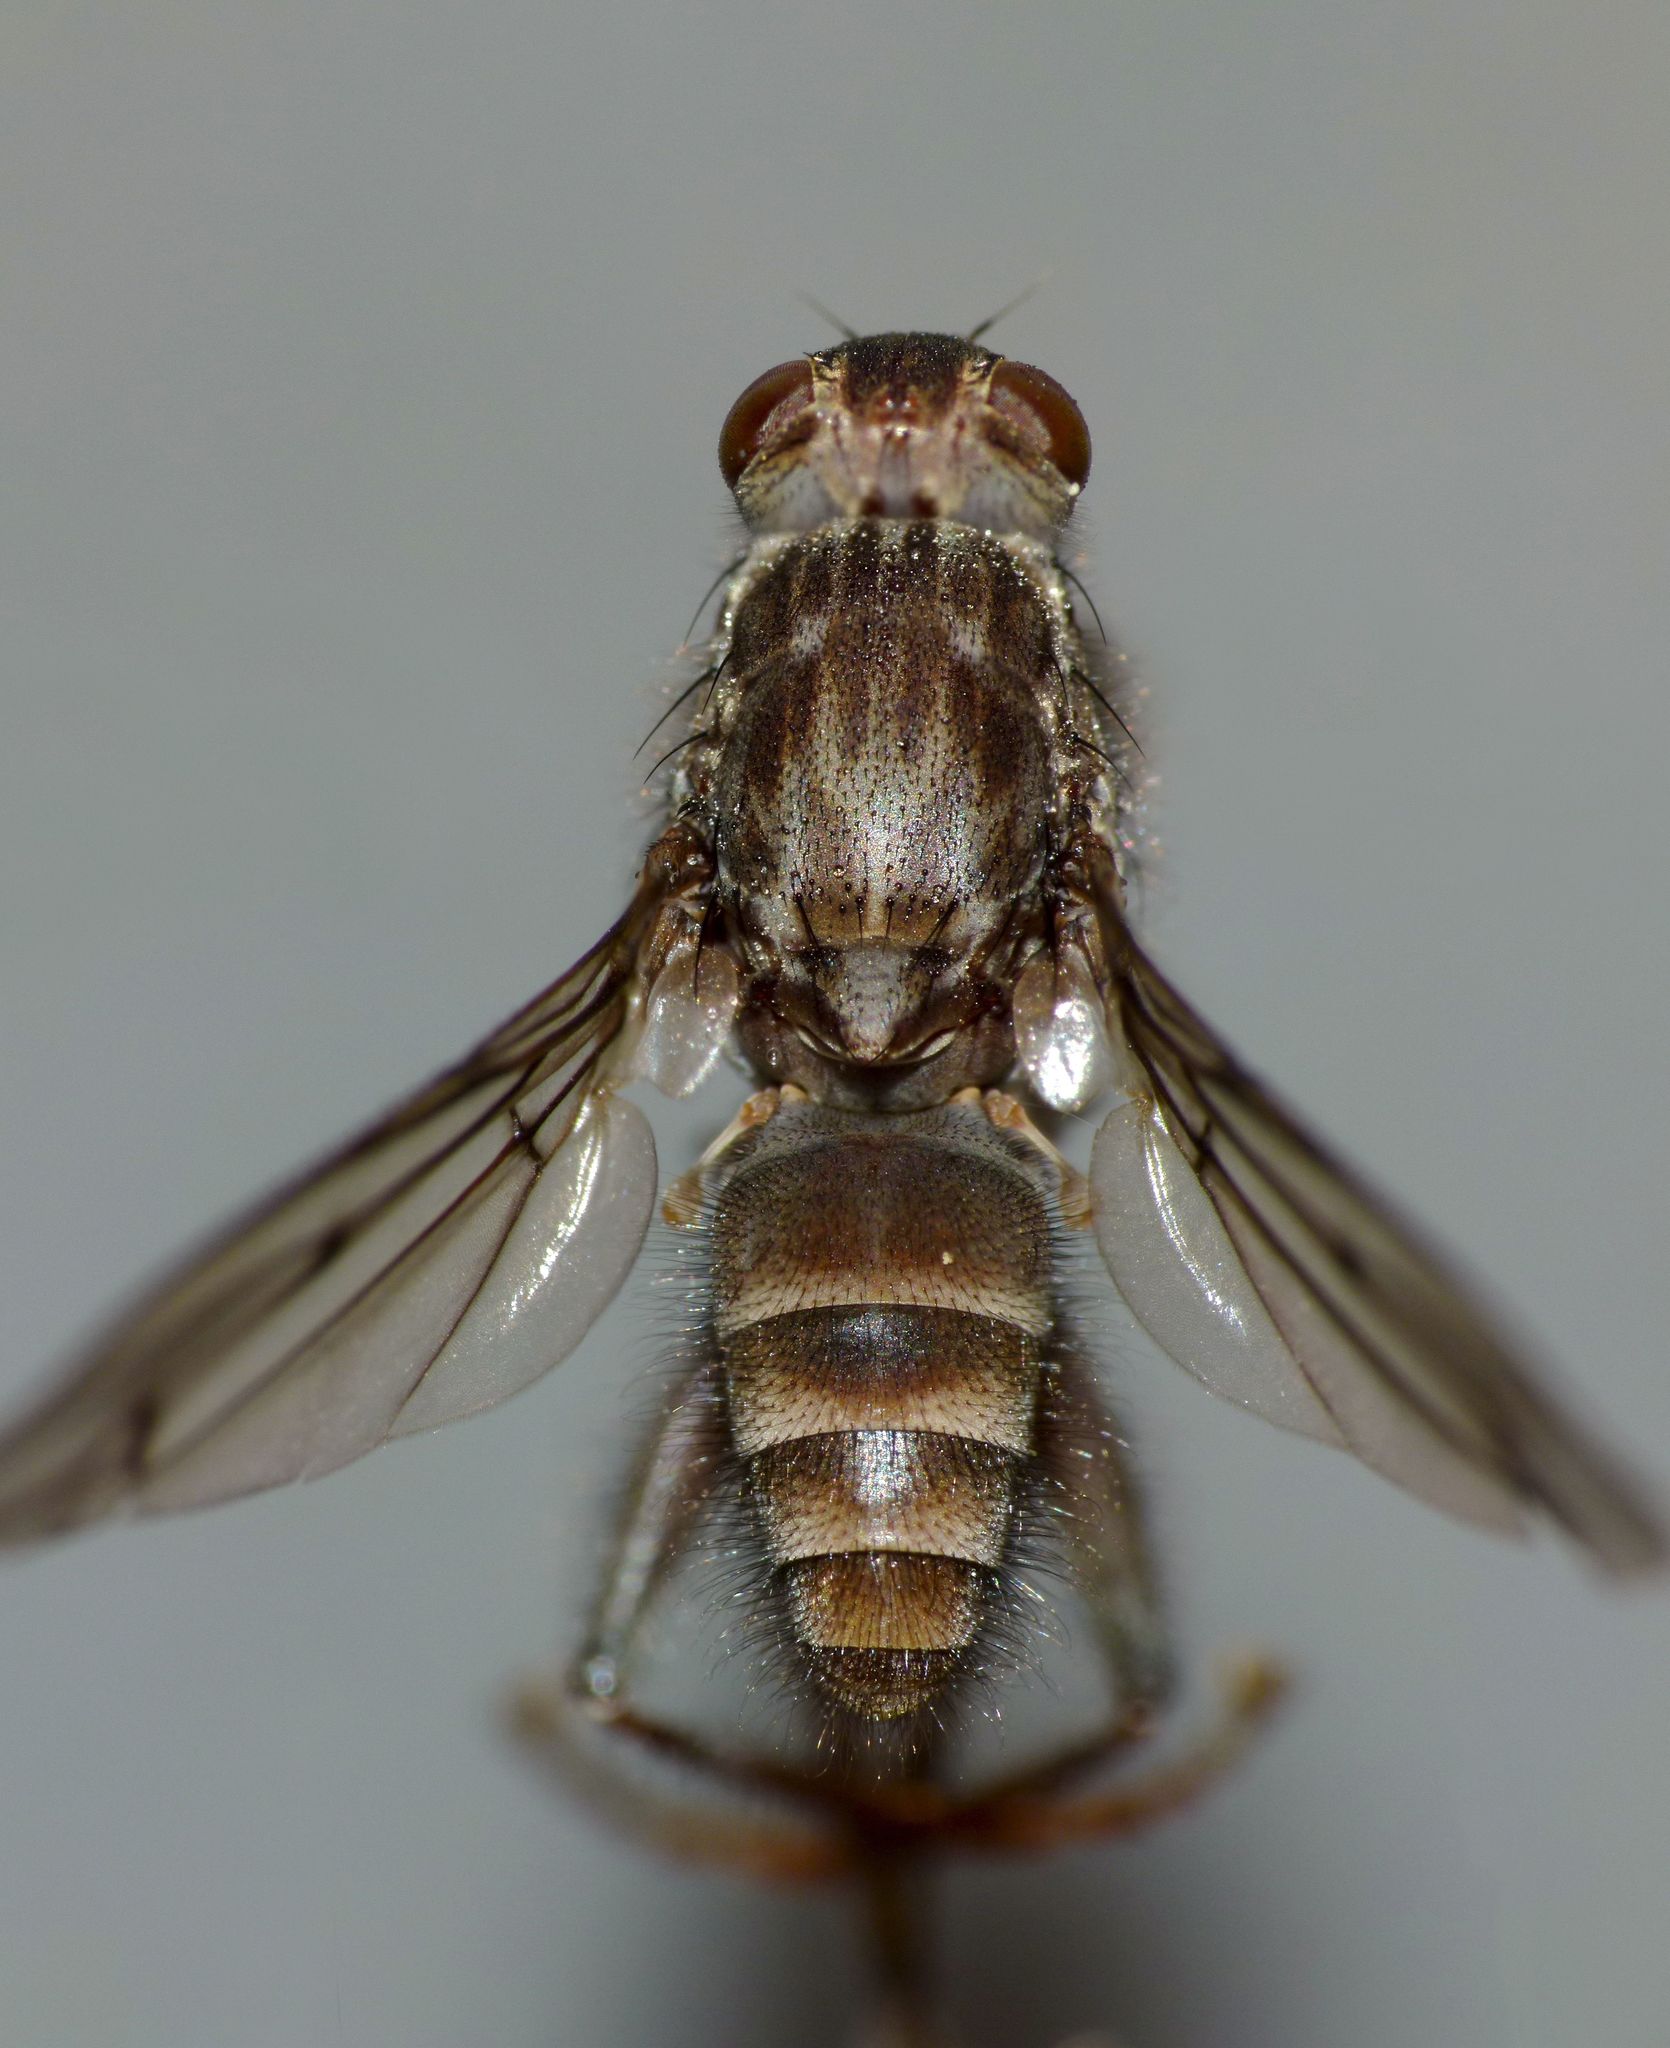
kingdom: Animalia
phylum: Arthropoda
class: Insecta
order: Diptera
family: Helcomyzidae
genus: Maorimyia
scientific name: Maorimyia bipunctata
